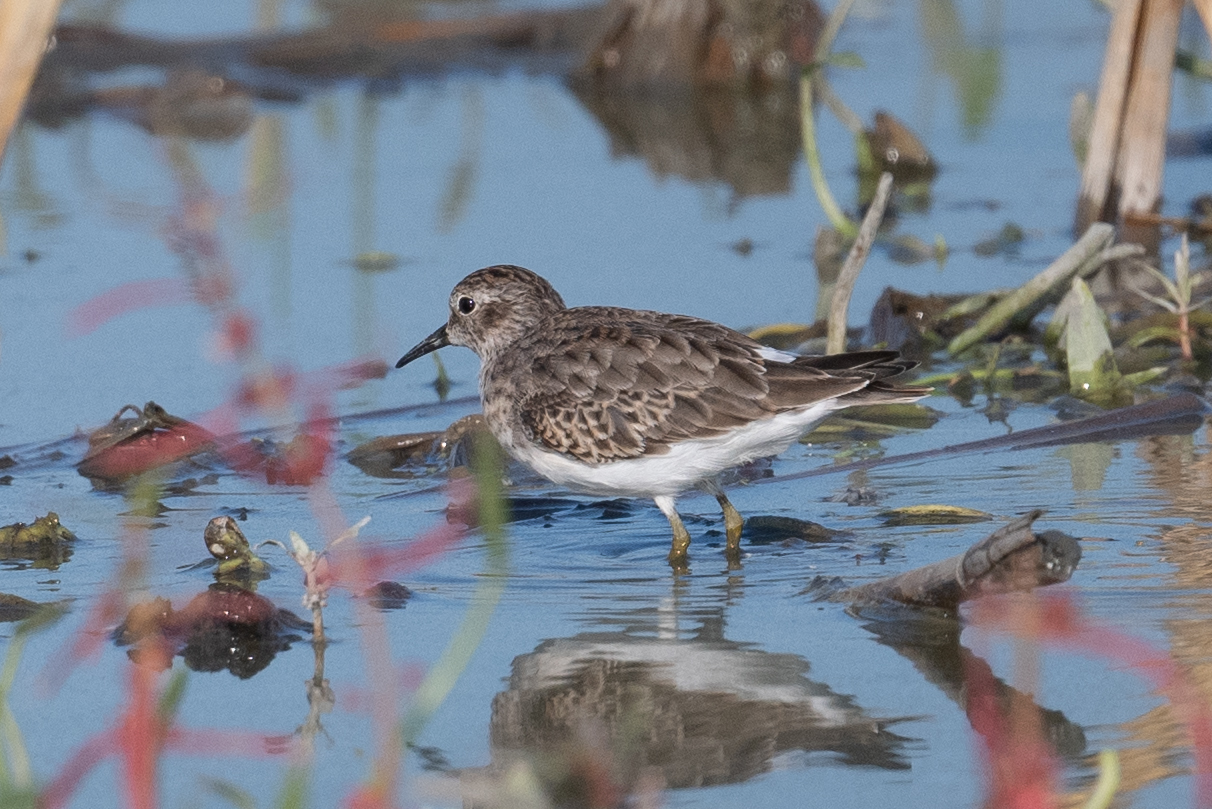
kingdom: Animalia
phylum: Chordata
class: Aves
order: Charadriiformes
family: Scolopacidae
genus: Calidris
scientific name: Calidris minutilla
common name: Least sandpiper
